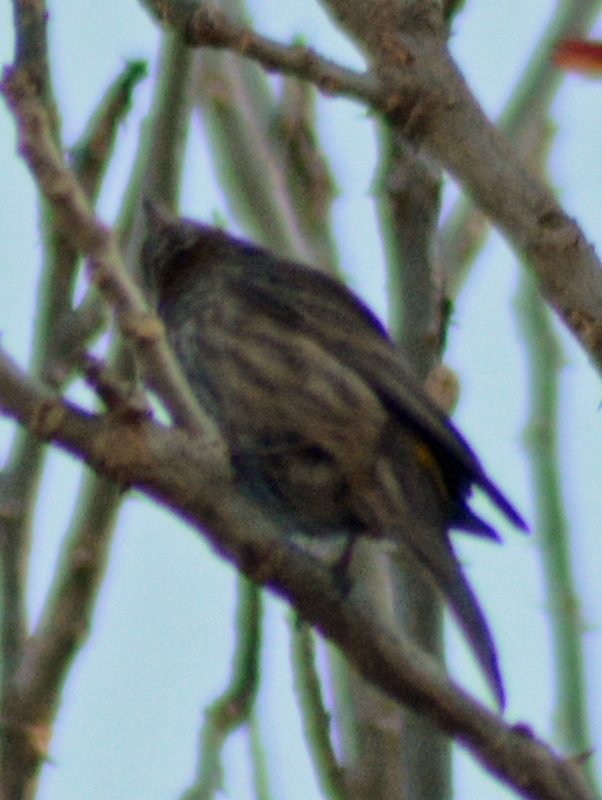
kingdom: Animalia
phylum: Chordata
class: Aves
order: Passeriformes
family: Fringillidae
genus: Haemorhous
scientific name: Haemorhous mexicanus
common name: House finch
